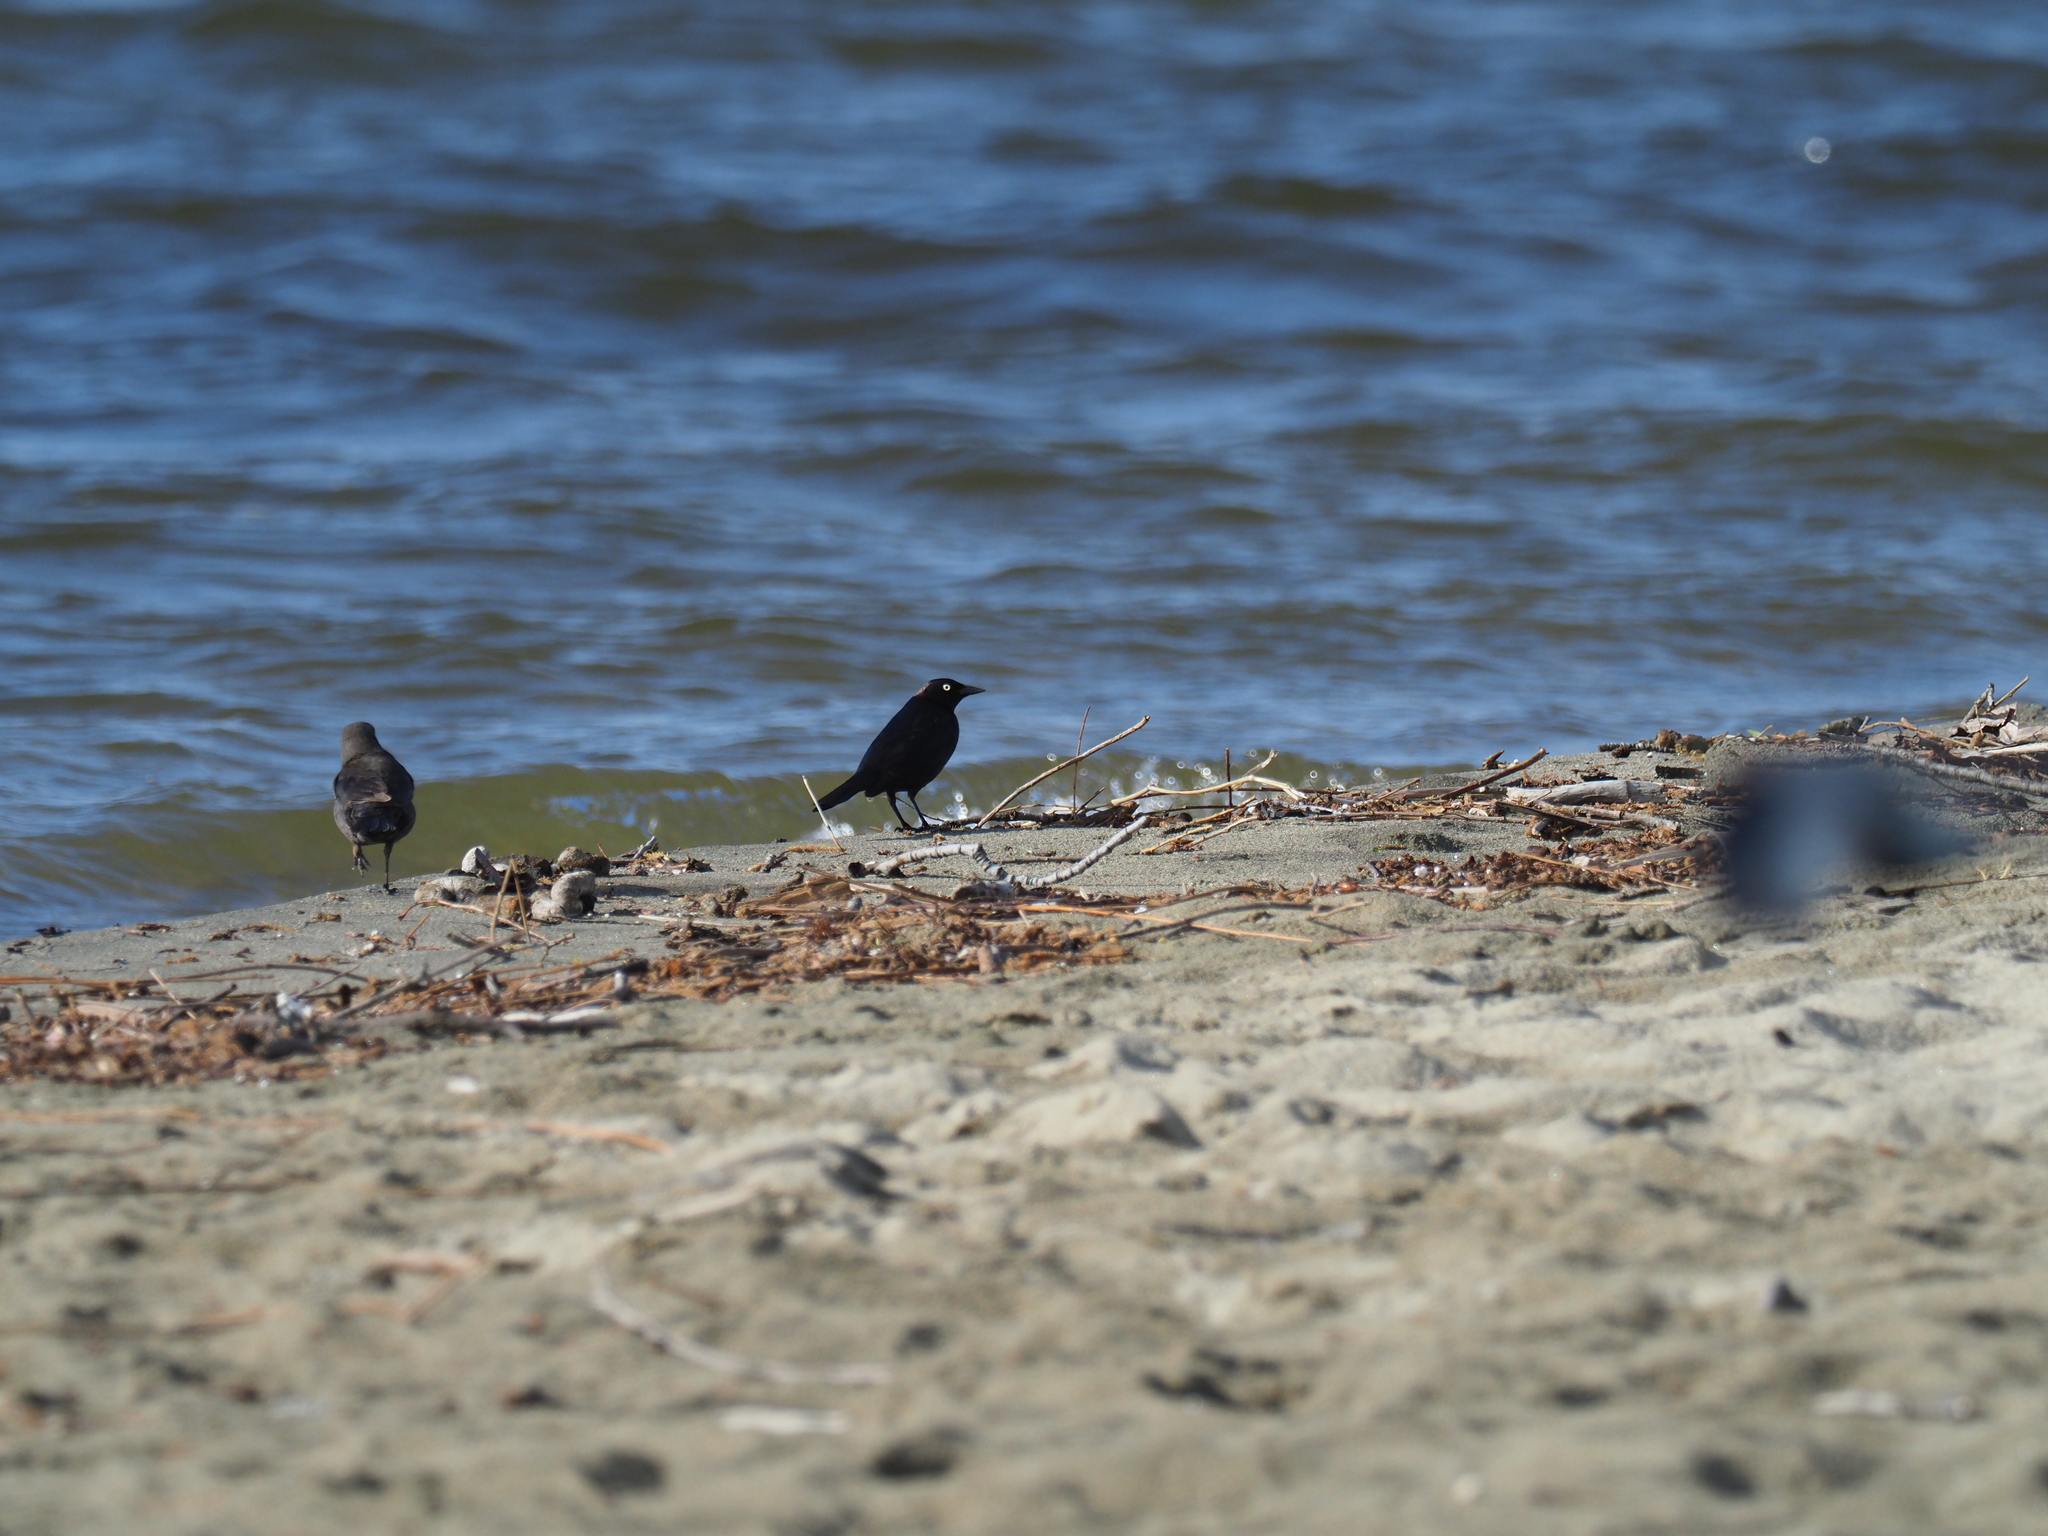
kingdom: Animalia
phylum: Chordata
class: Aves
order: Passeriformes
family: Icteridae
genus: Euphagus
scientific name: Euphagus cyanocephalus
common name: Brewer's blackbird
